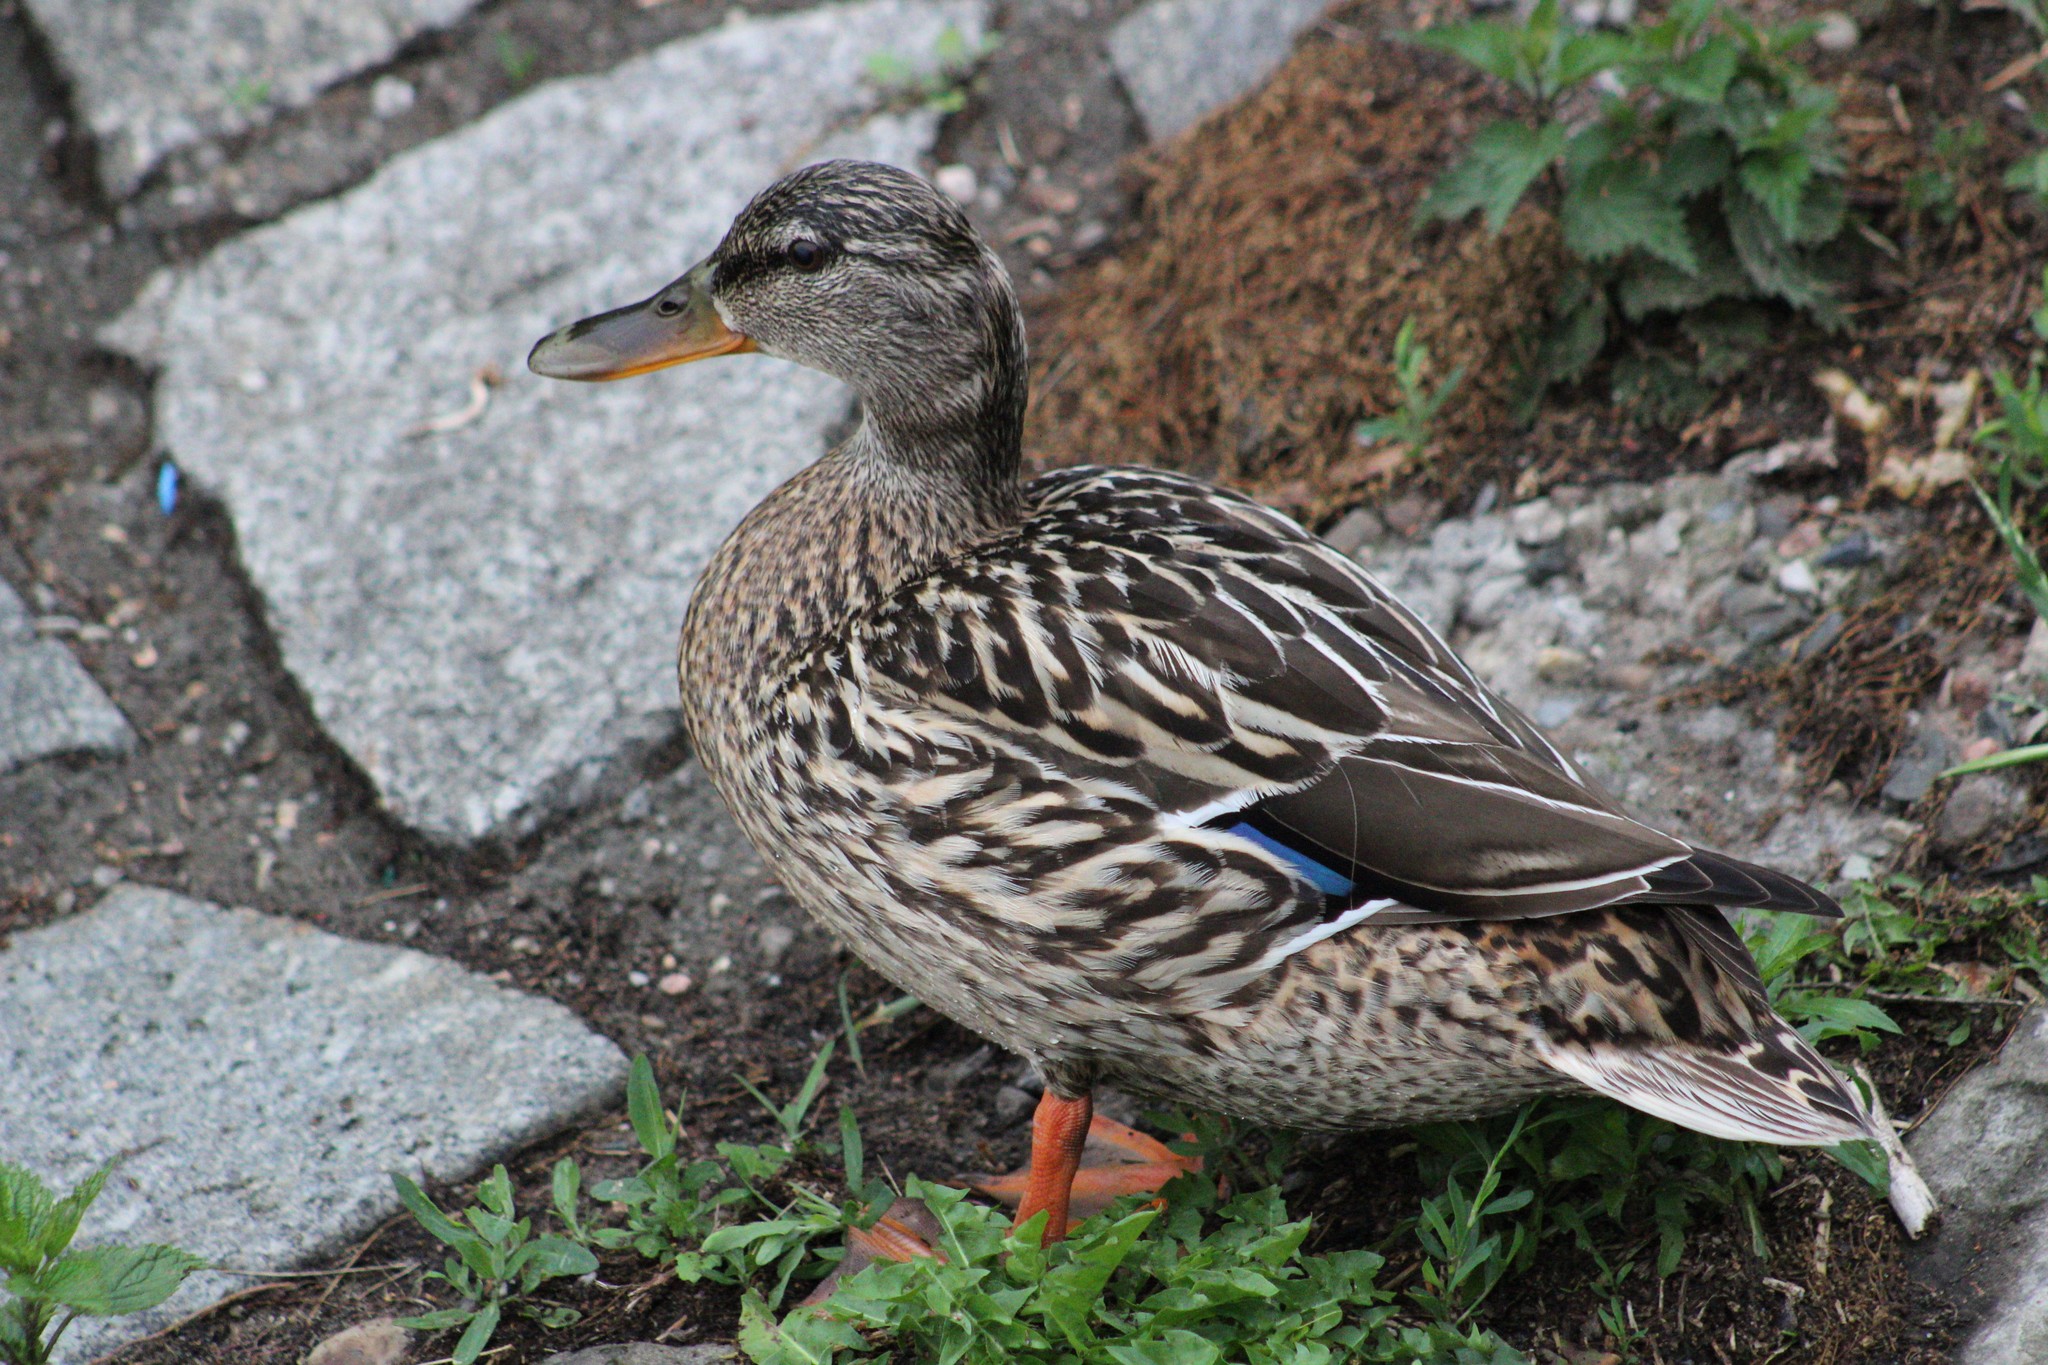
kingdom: Animalia
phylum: Chordata
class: Aves
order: Anseriformes
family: Anatidae
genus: Anas
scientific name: Anas platyrhynchos
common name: Mallard
